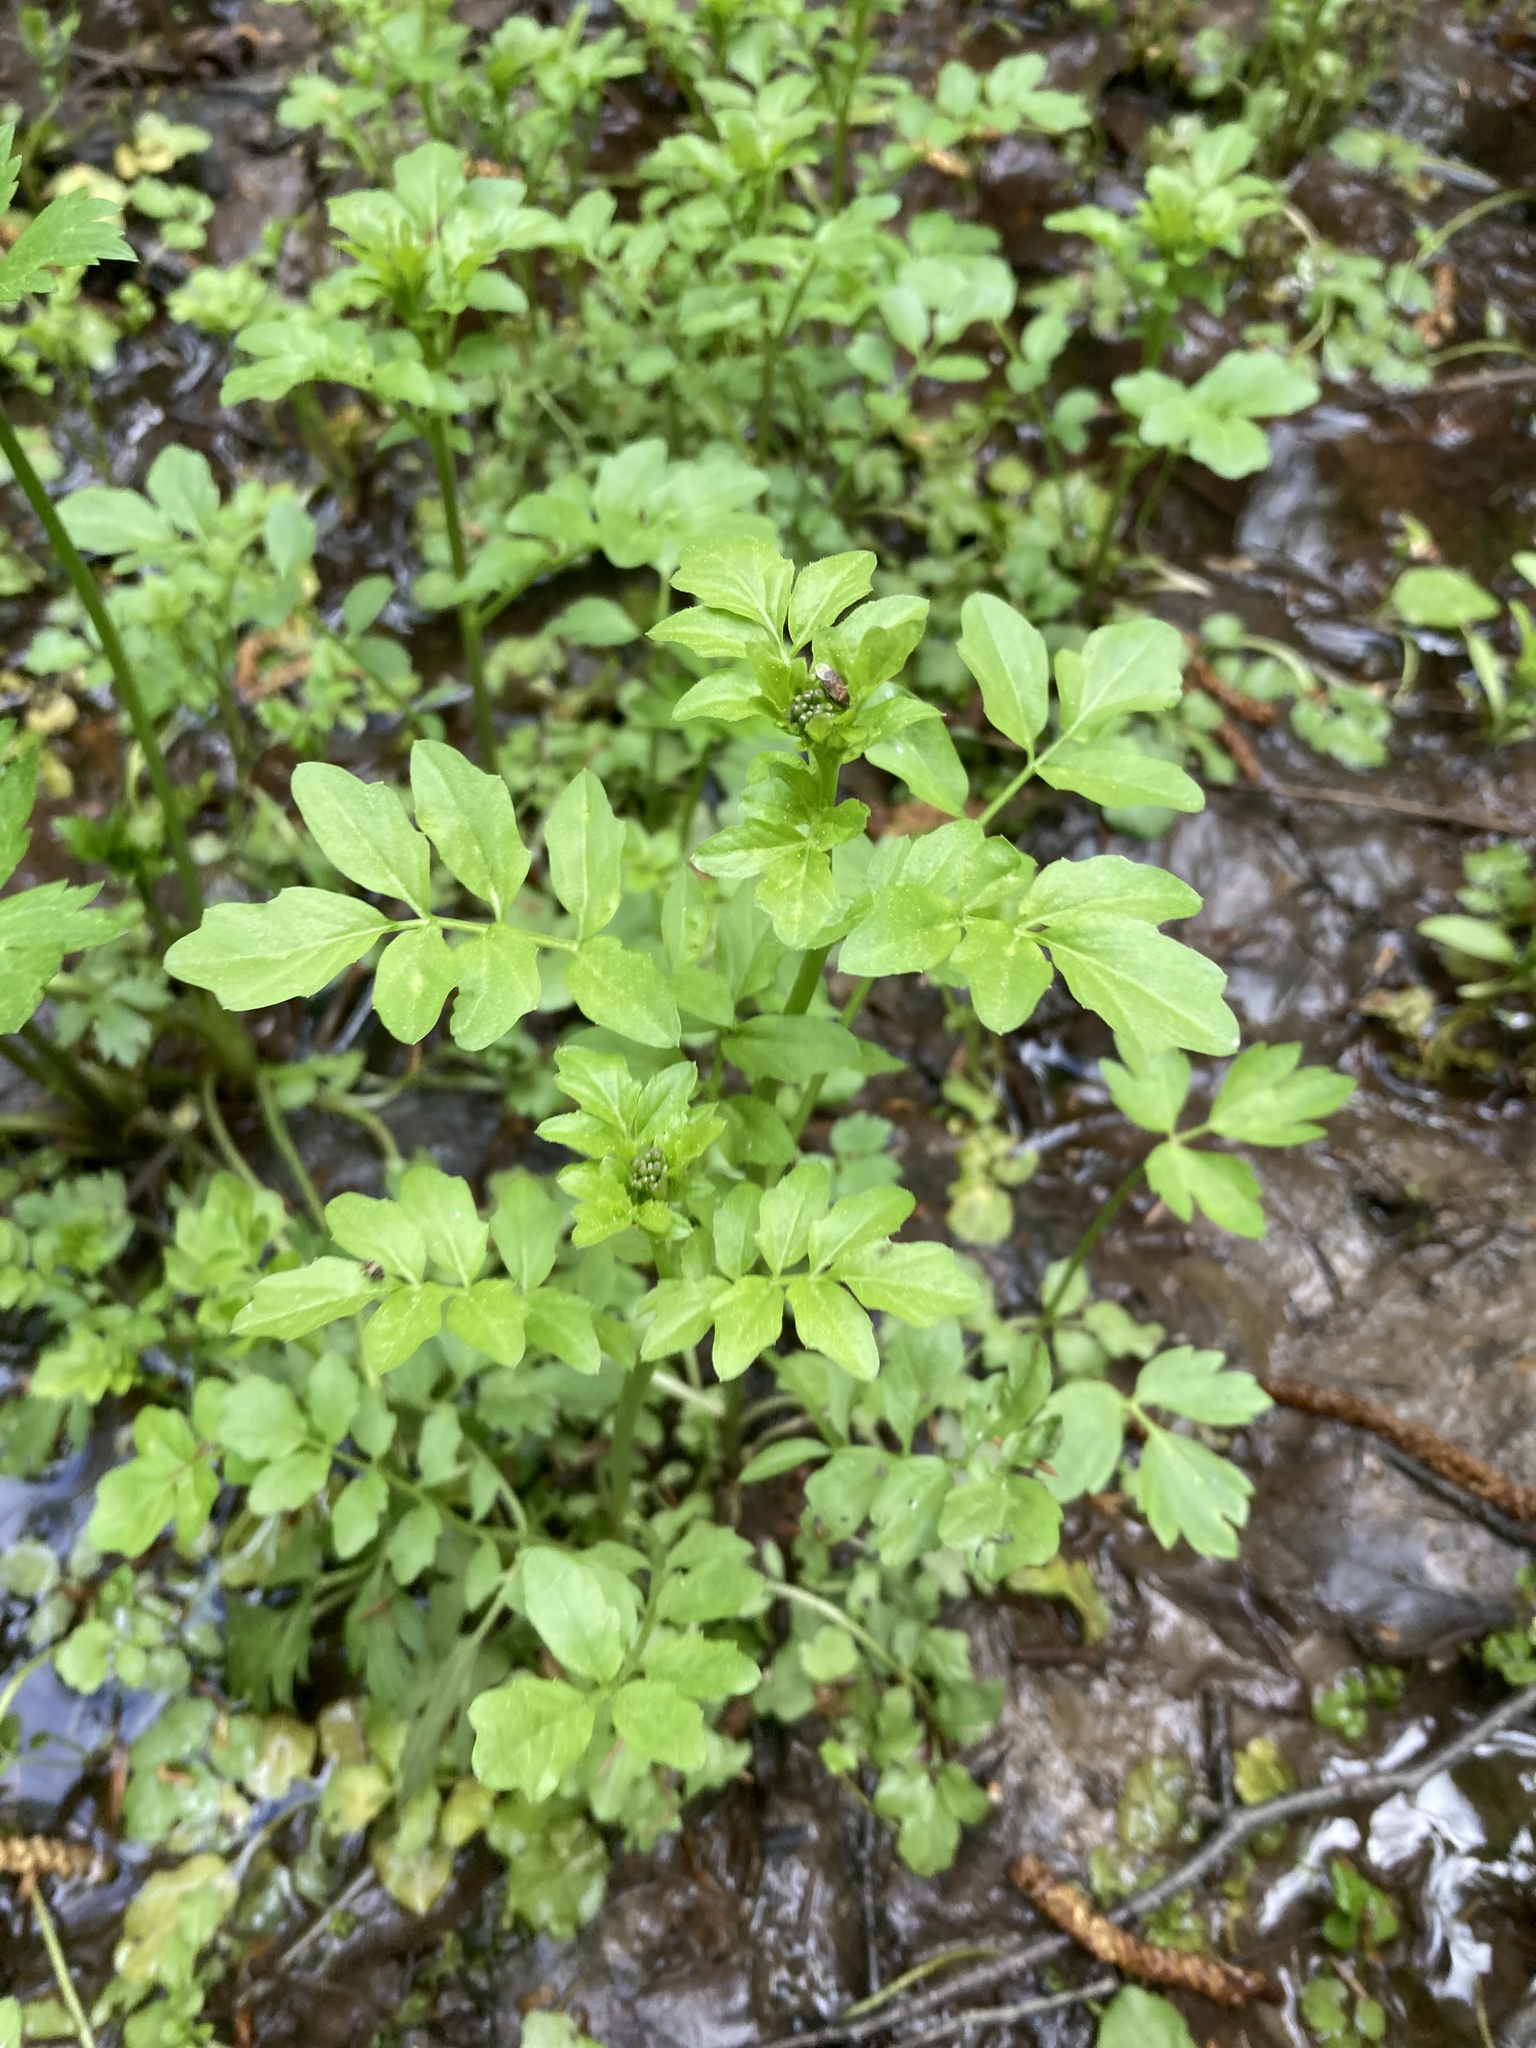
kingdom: Plantae
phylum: Tracheophyta
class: Magnoliopsida
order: Brassicales
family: Brassicaceae
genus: Cardamine
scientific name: Cardamine amara
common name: Large bitter-cress
